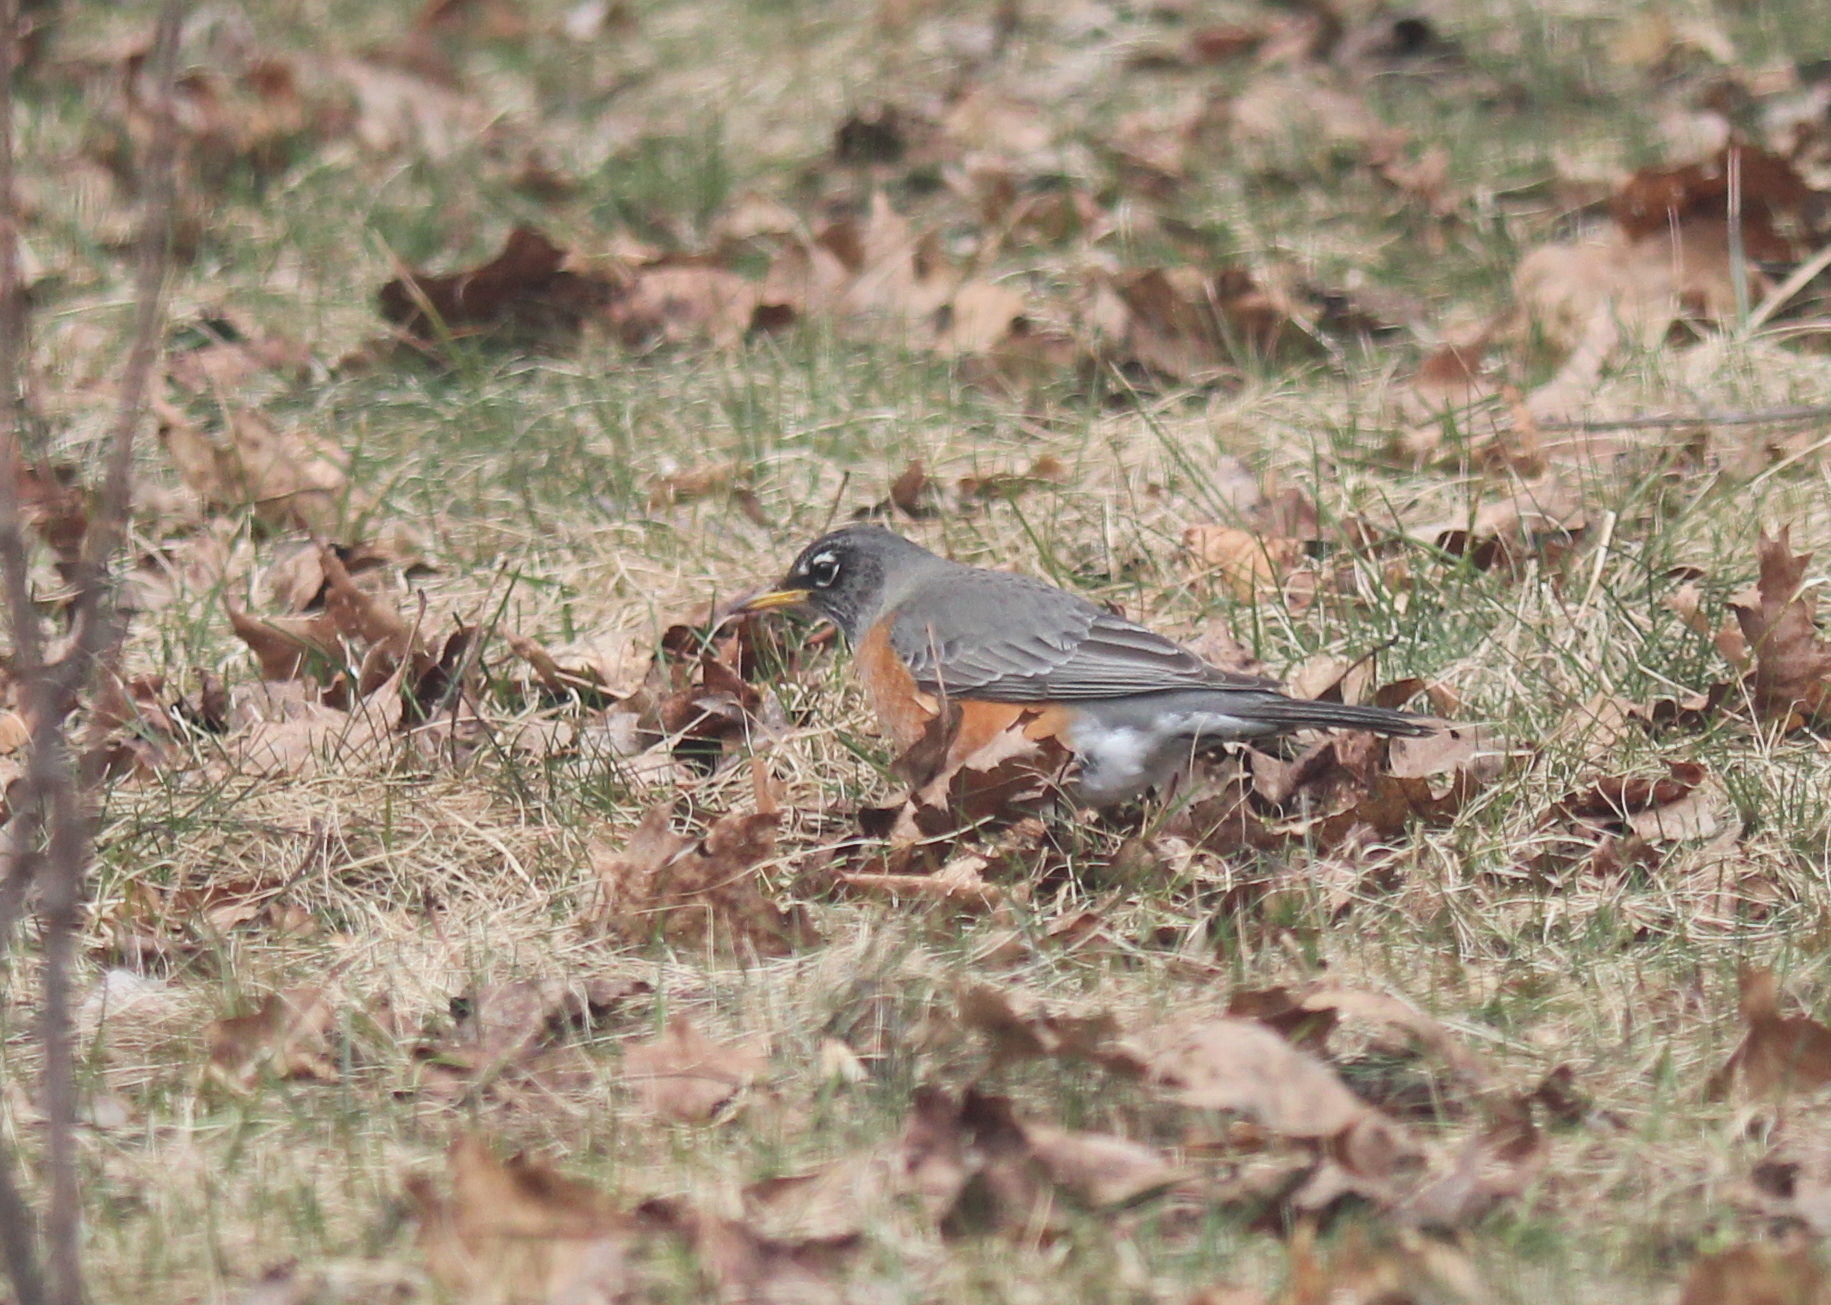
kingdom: Animalia
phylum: Chordata
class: Aves
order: Passeriformes
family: Turdidae
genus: Turdus
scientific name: Turdus migratorius
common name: American robin
